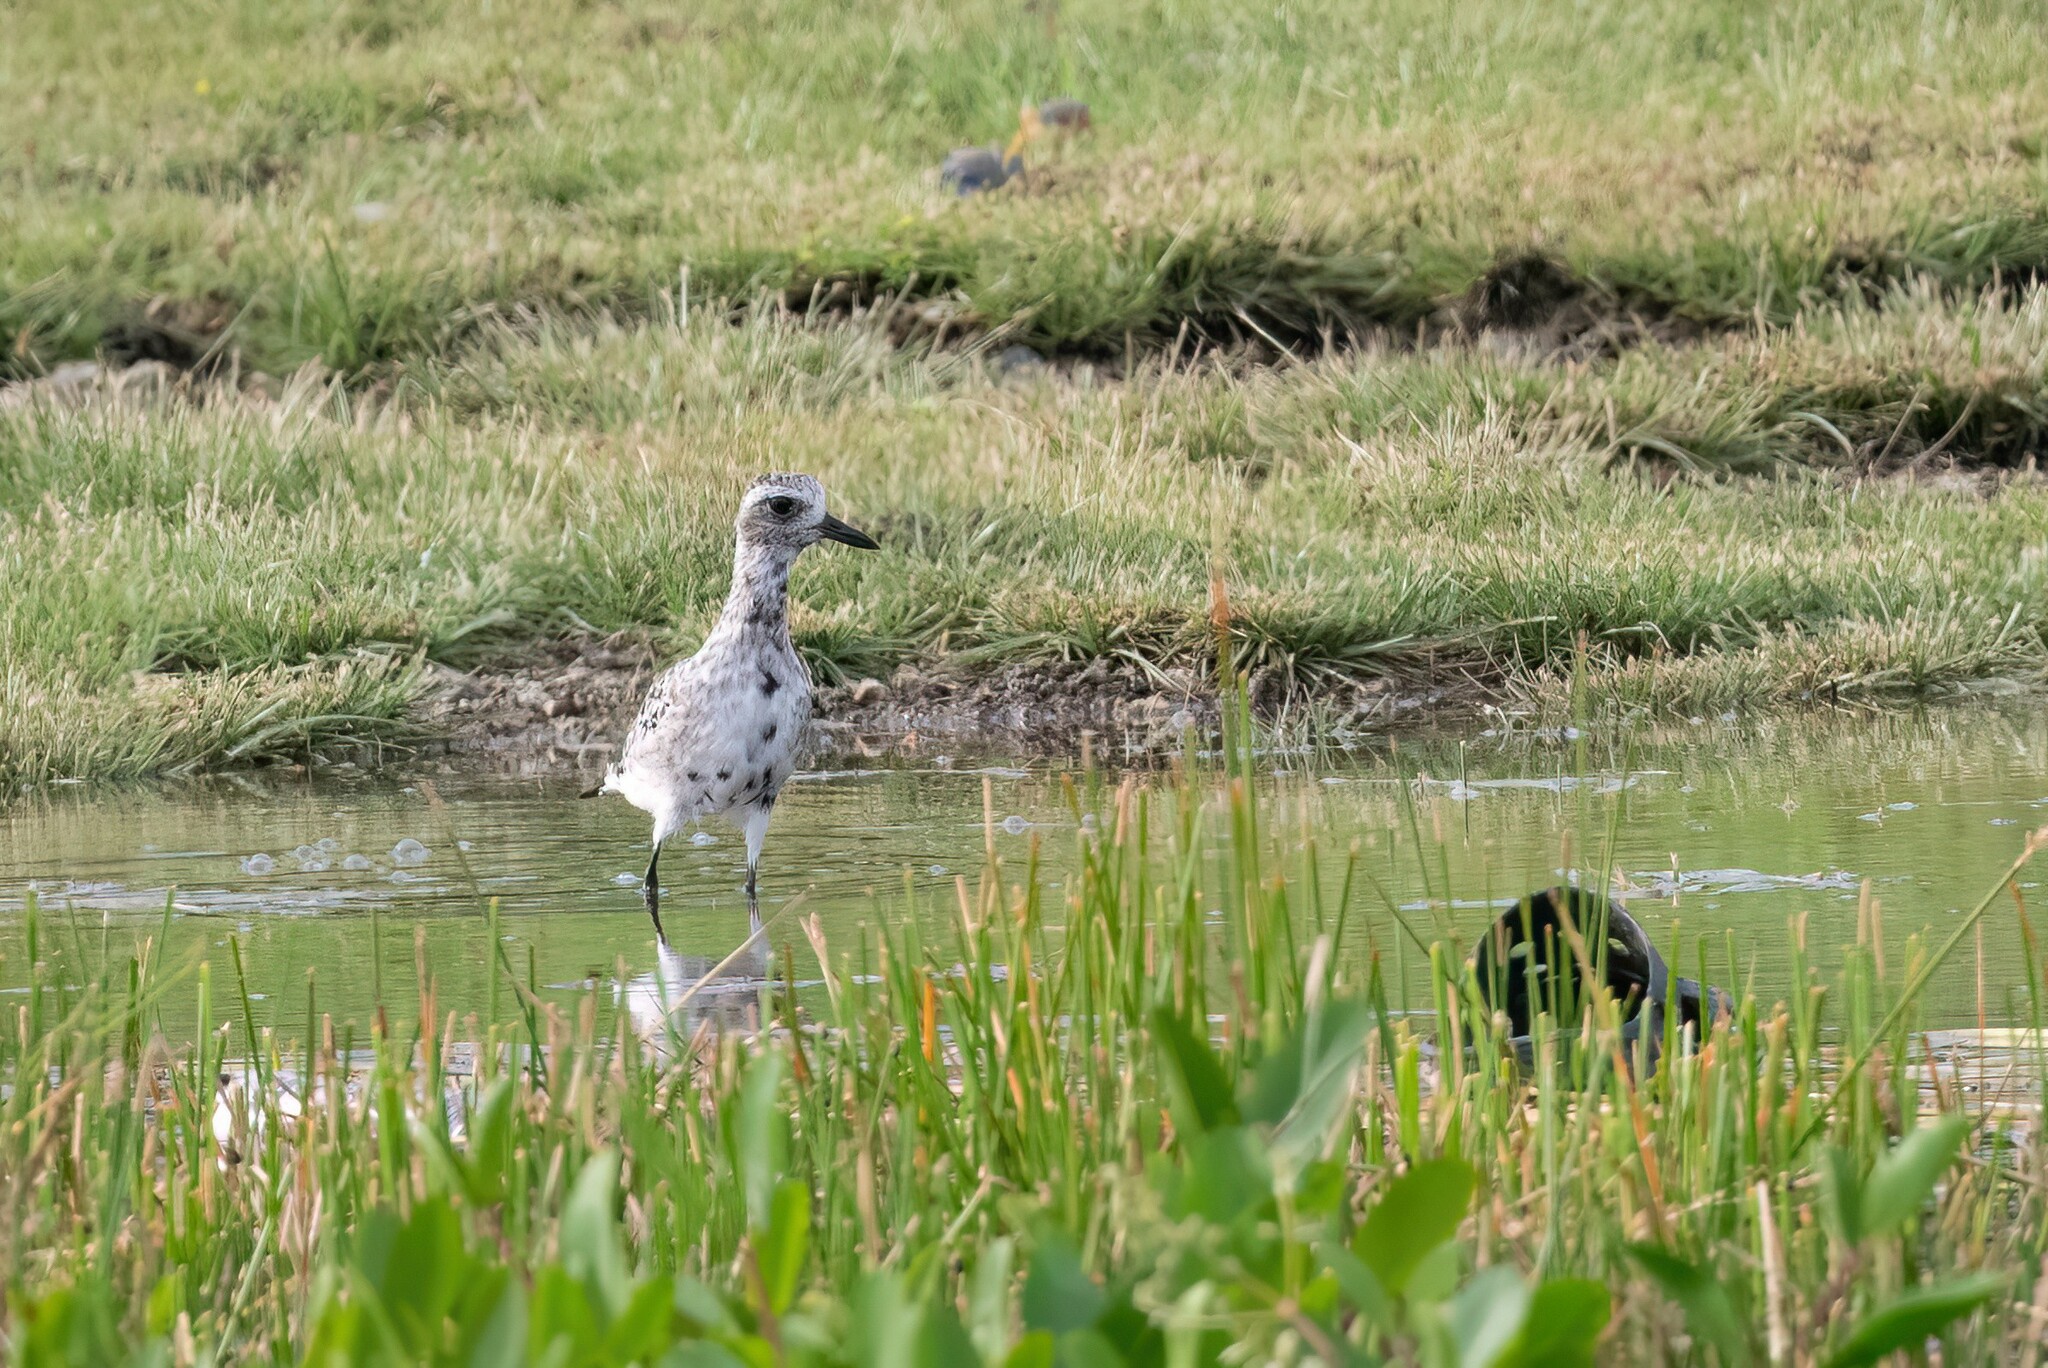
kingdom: Animalia
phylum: Chordata
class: Aves
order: Charadriiformes
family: Charadriidae
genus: Pluvialis
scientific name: Pluvialis squatarola
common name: Grey plover
